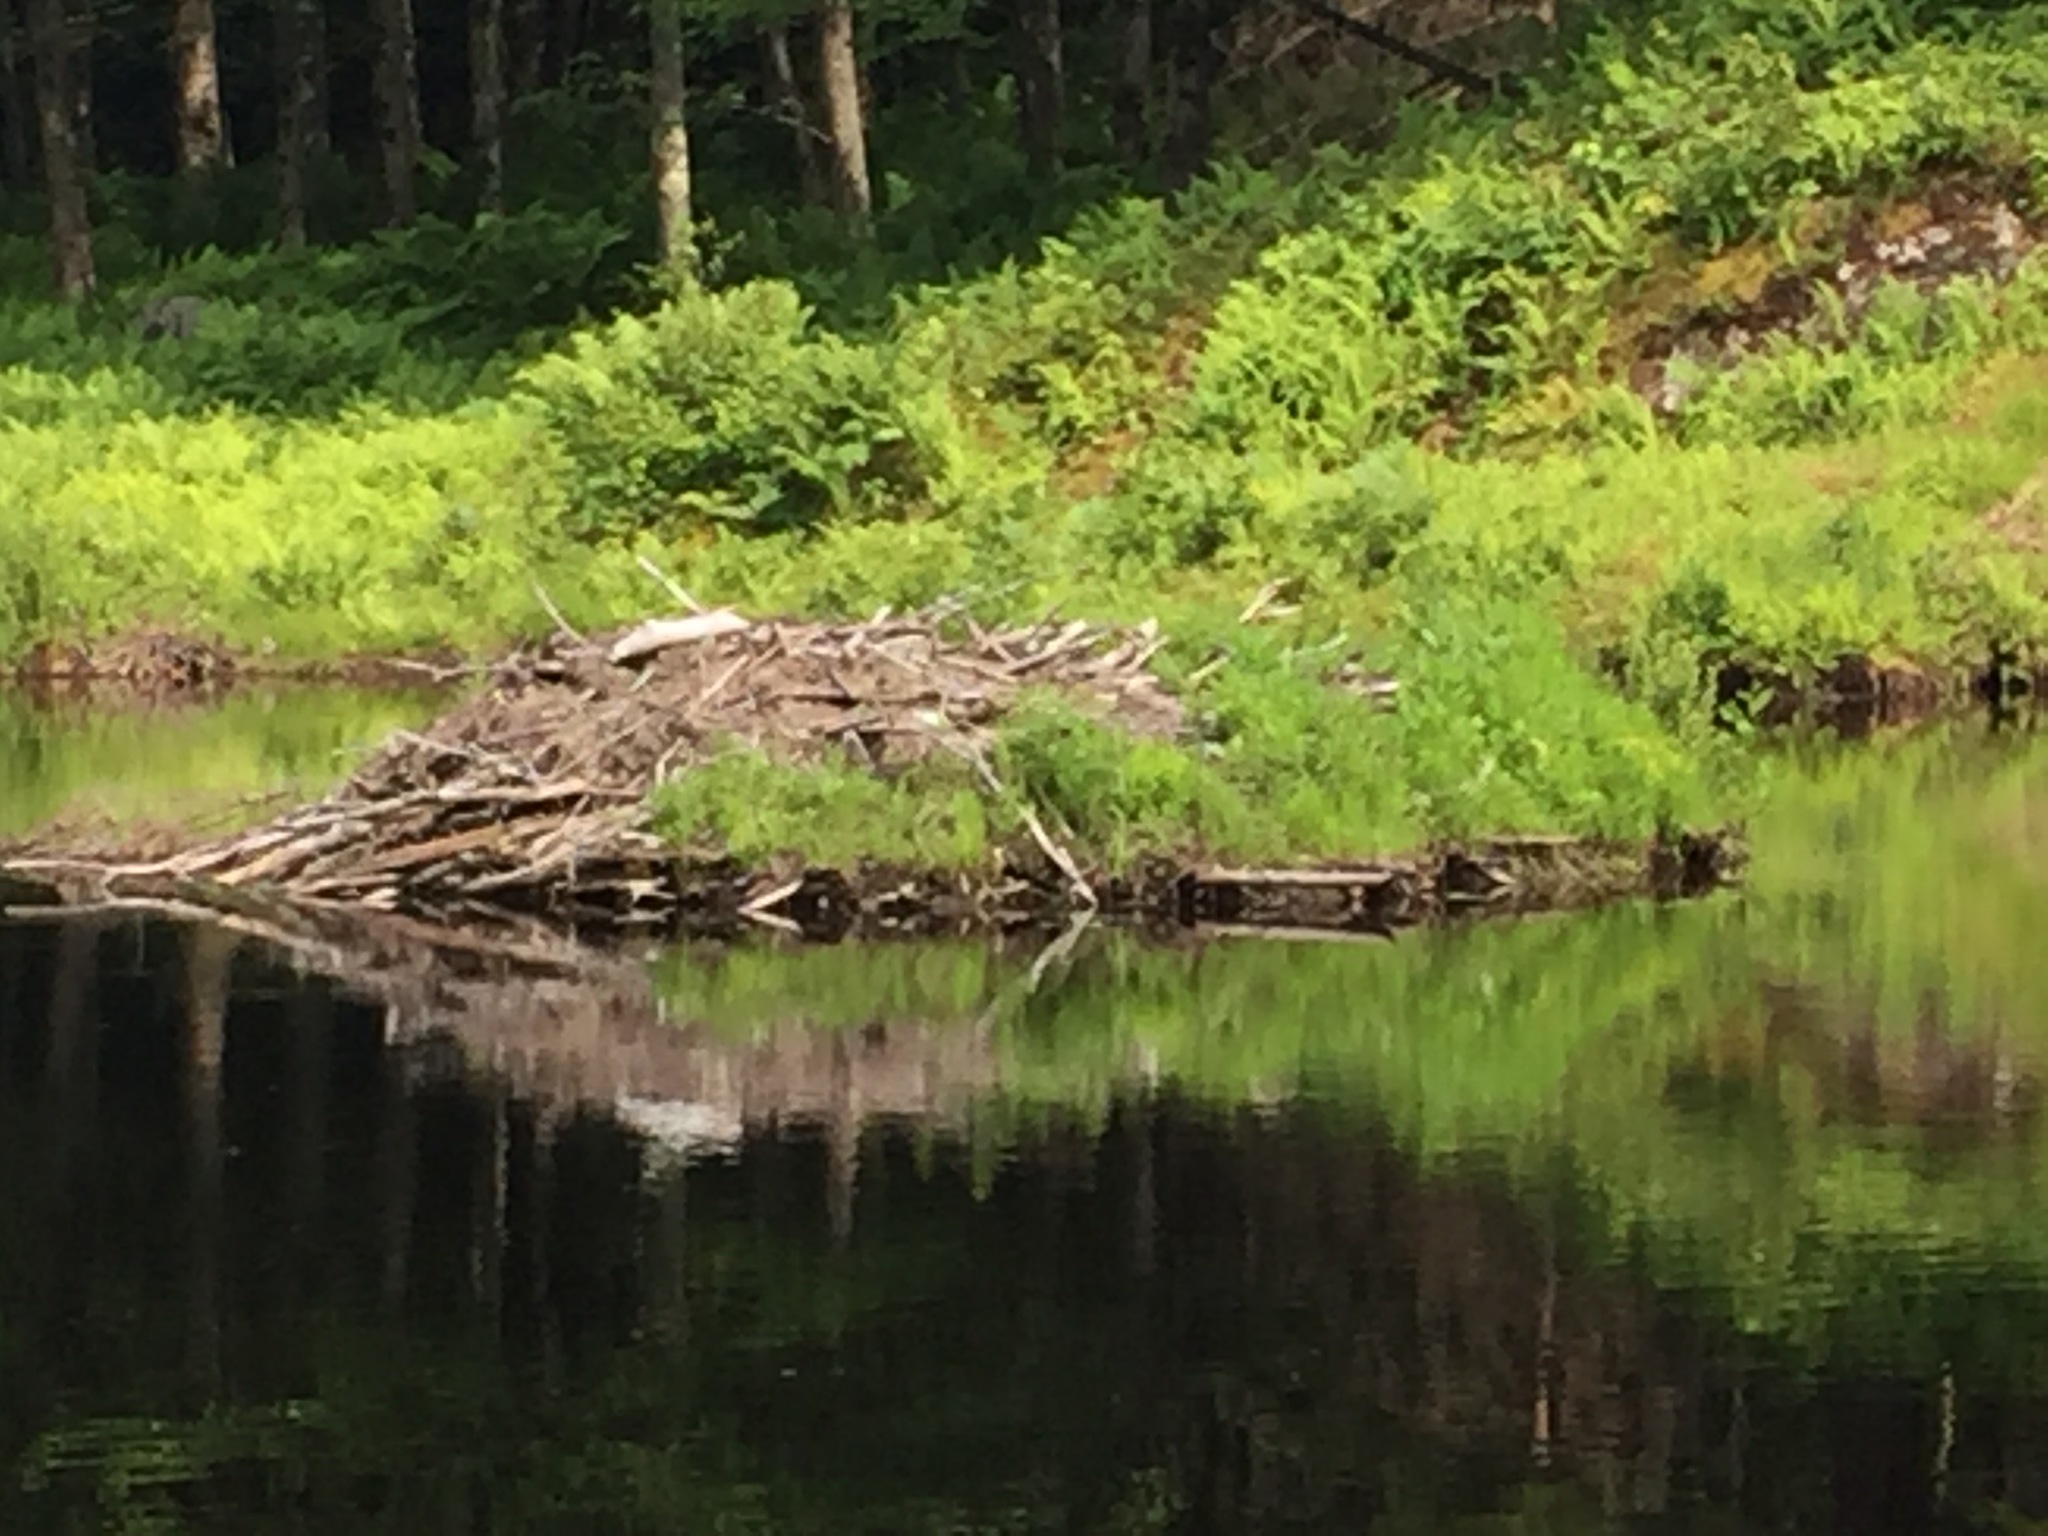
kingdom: Animalia
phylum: Chordata
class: Mammalia
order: Rodentia
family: Castoridae
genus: Castor
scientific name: Castor canadensis
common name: American beaver
